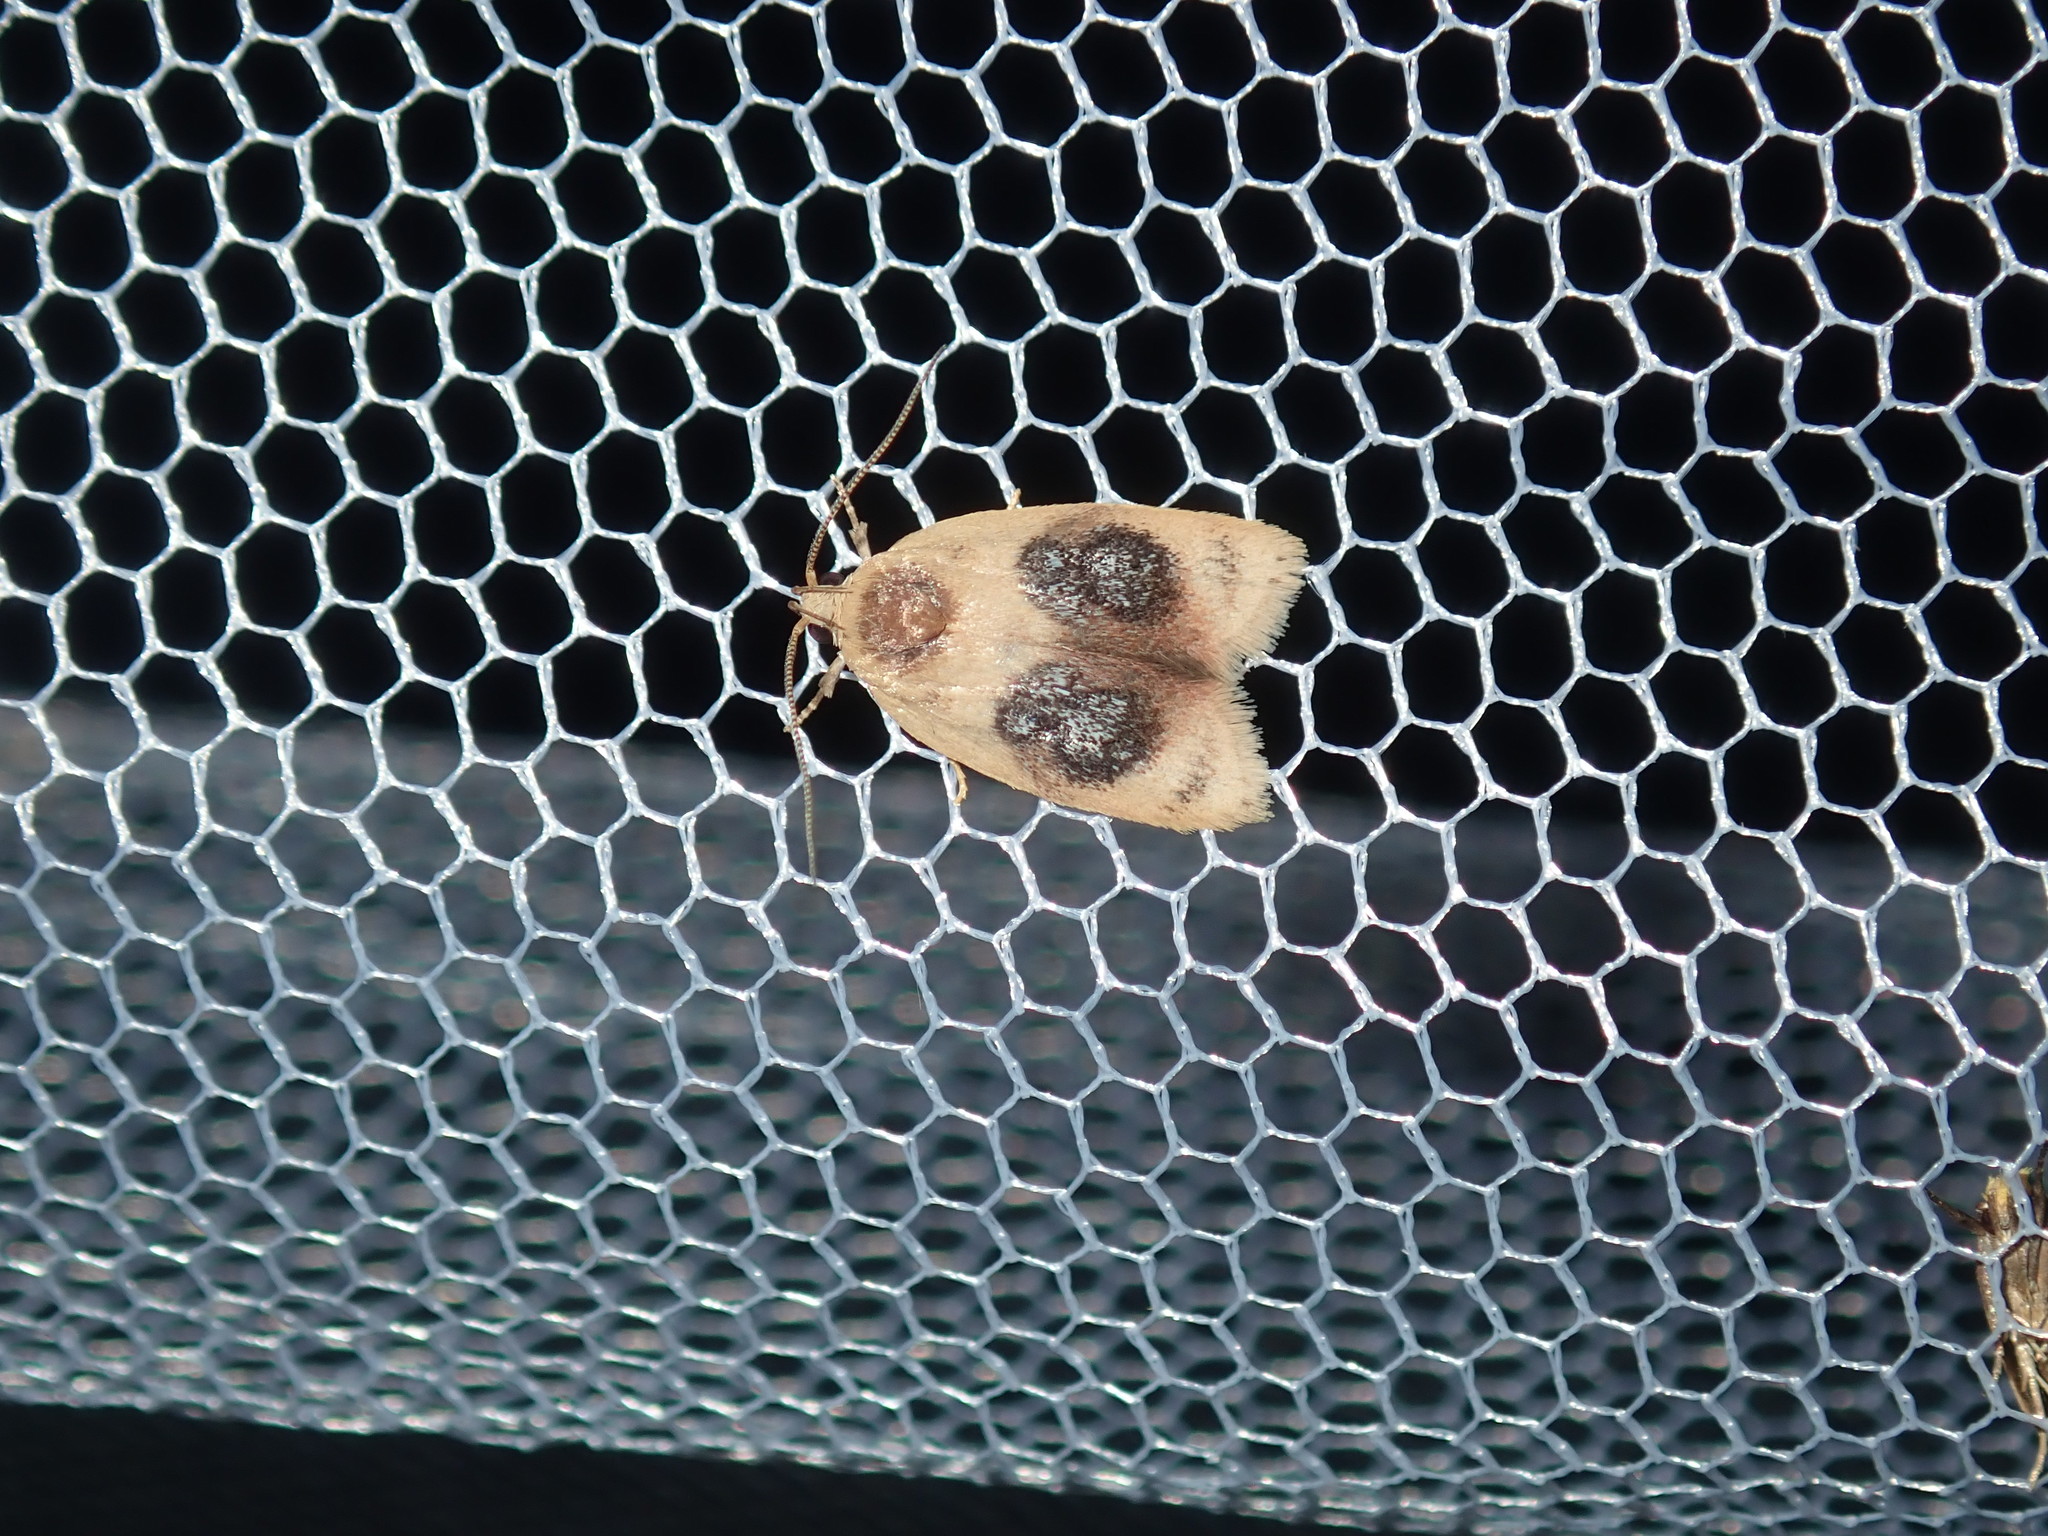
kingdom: Animalia
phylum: Arthropoda
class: Insecta
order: Lepidoptera
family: Oecophoridae
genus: Garrha
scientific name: Garrha ocellifera
